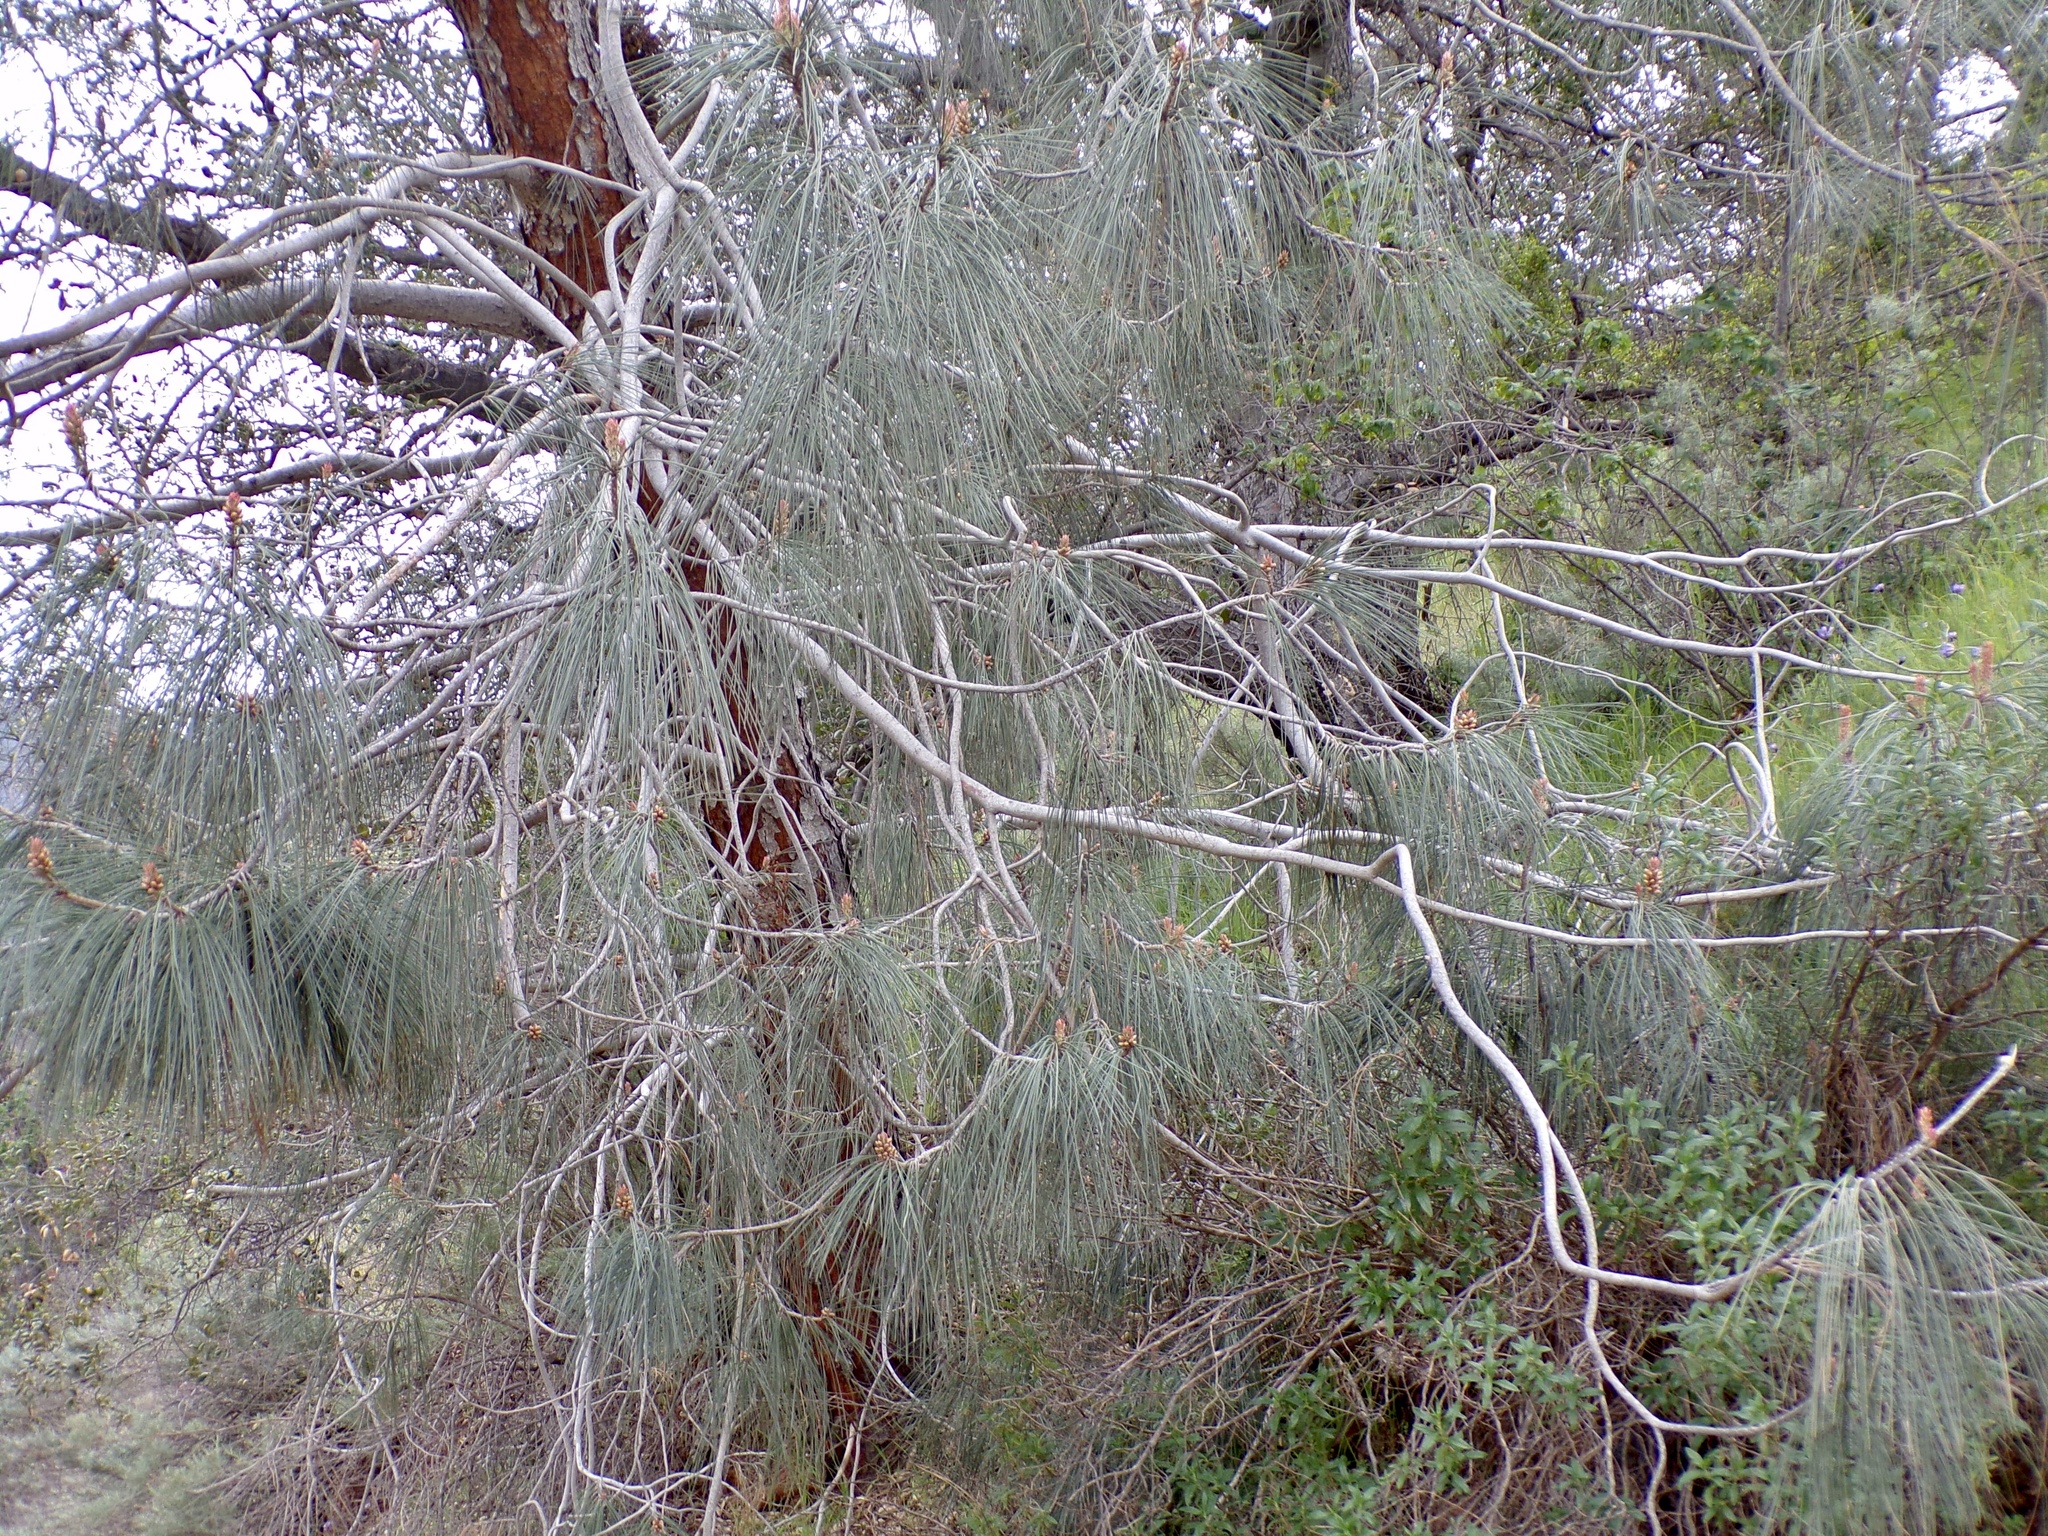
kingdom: Plantae
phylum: Tracheophyta
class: Pinopsida
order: Pinales
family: Pinaceae
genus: Pinus
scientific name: Pinus sabiniana
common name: Bull pine
